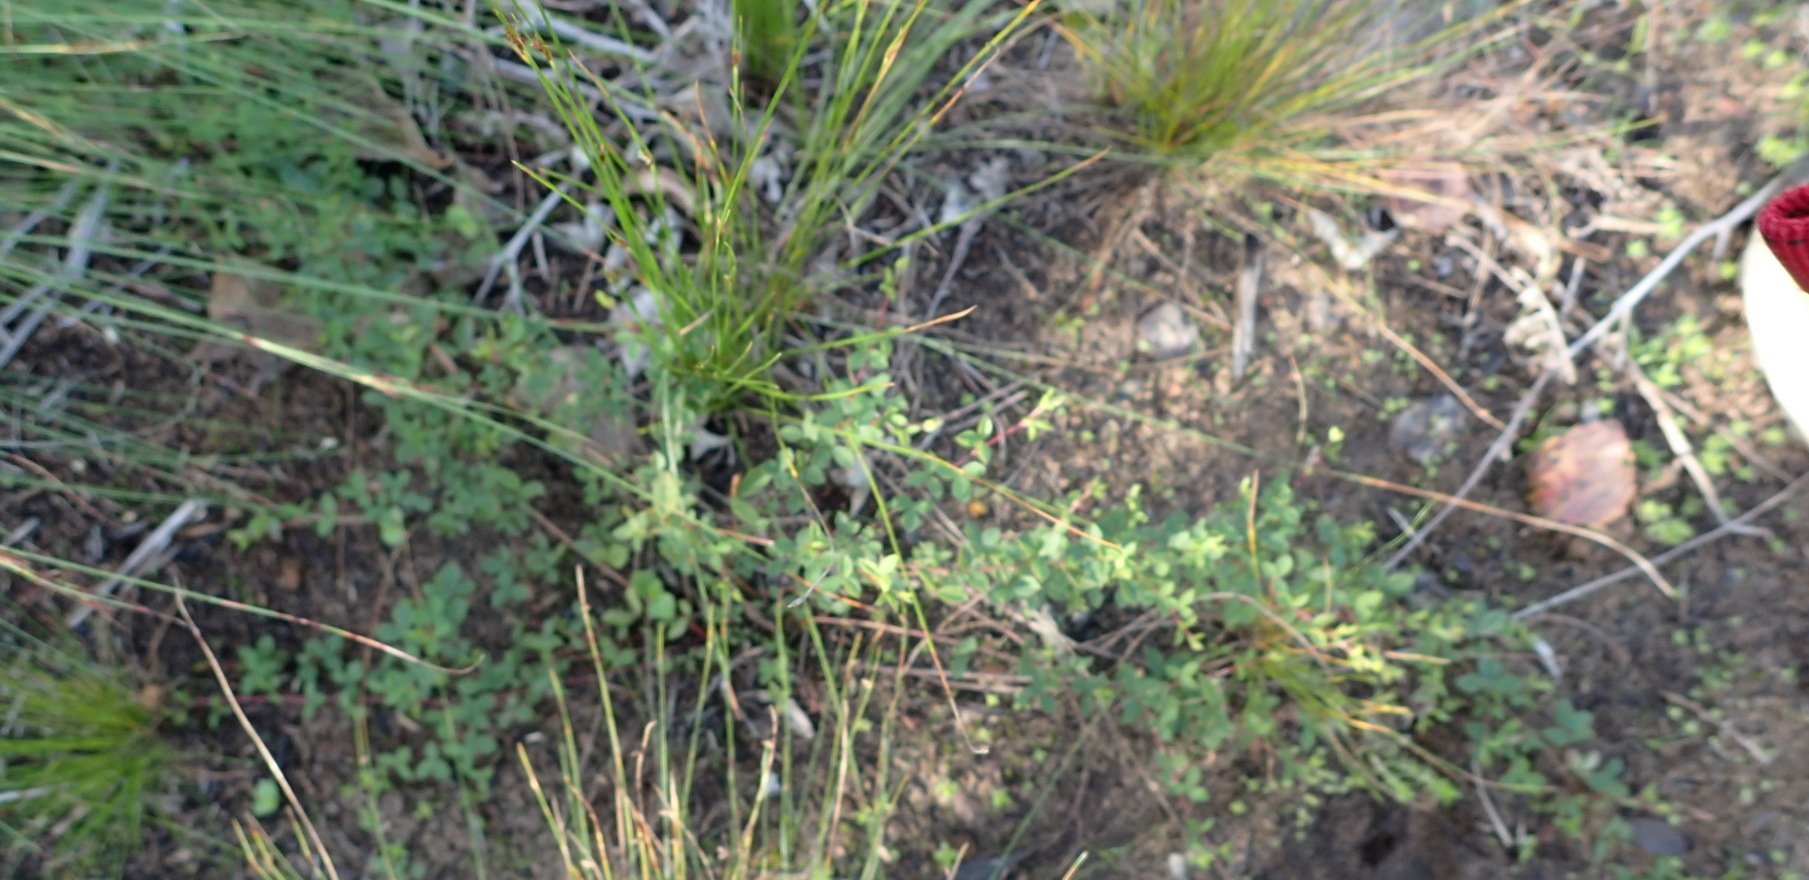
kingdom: Plantae
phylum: Tracheophyta
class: Magnoliopsida
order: Fabales
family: Fabaceae
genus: Indigofera
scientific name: Indigofera erecta
